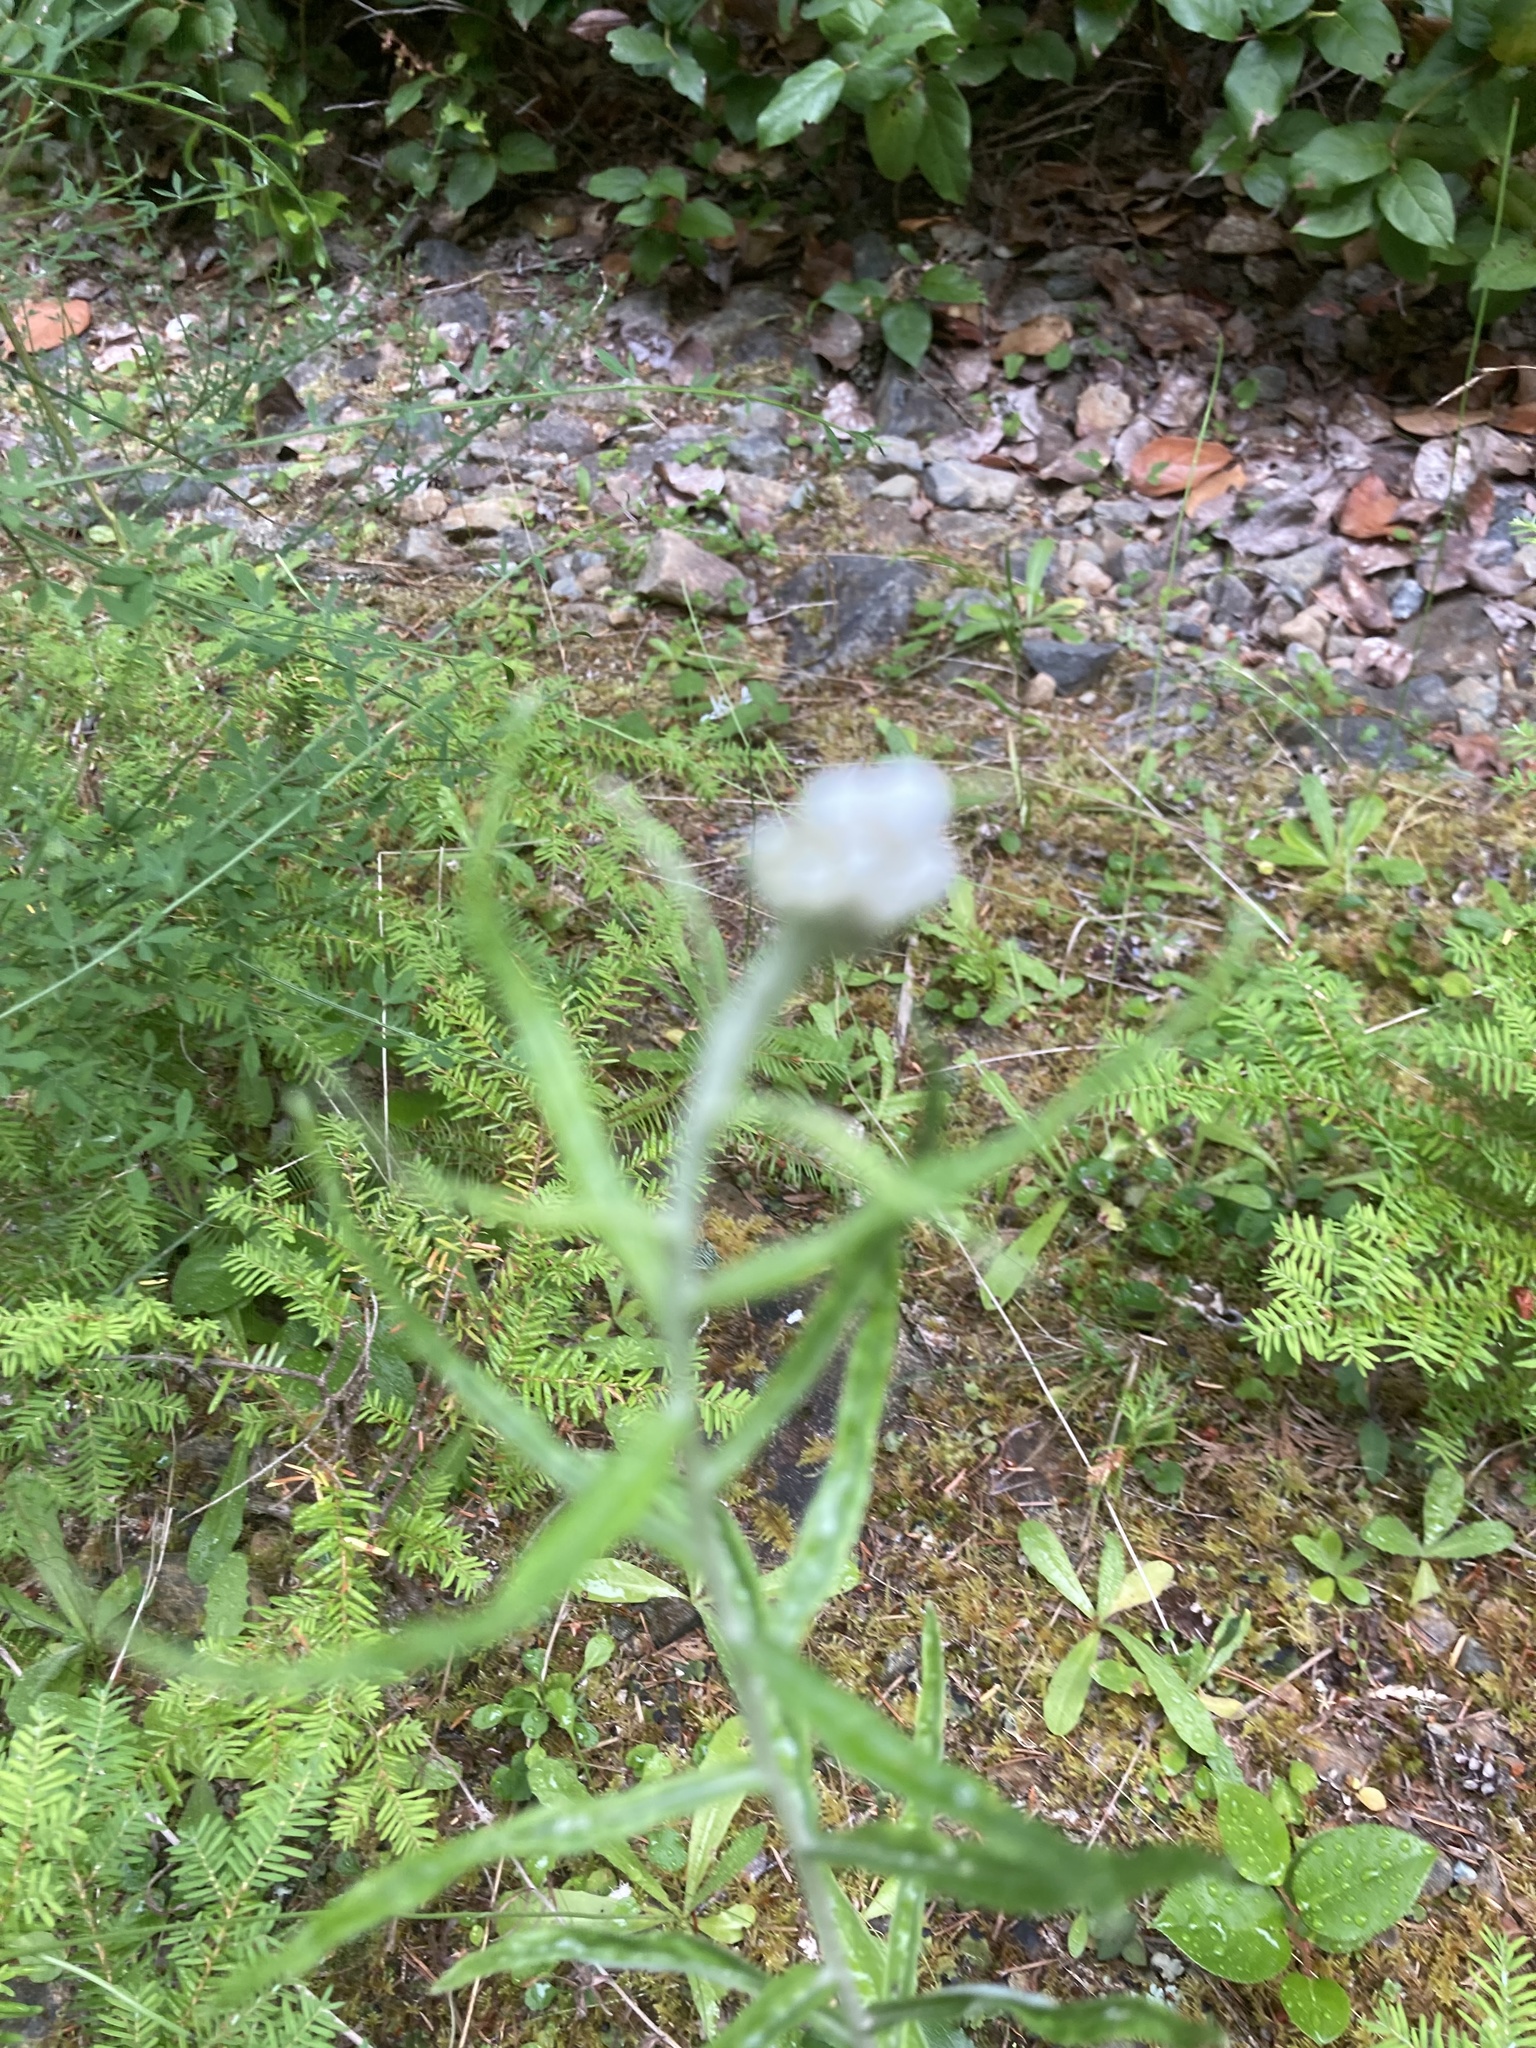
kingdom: Plantae
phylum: Tracheophyta
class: Magnoliopsida
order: Asterales
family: Asteraceae
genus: Anaphalis
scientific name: Anaphalis margaritacea
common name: Pearly everlasting
